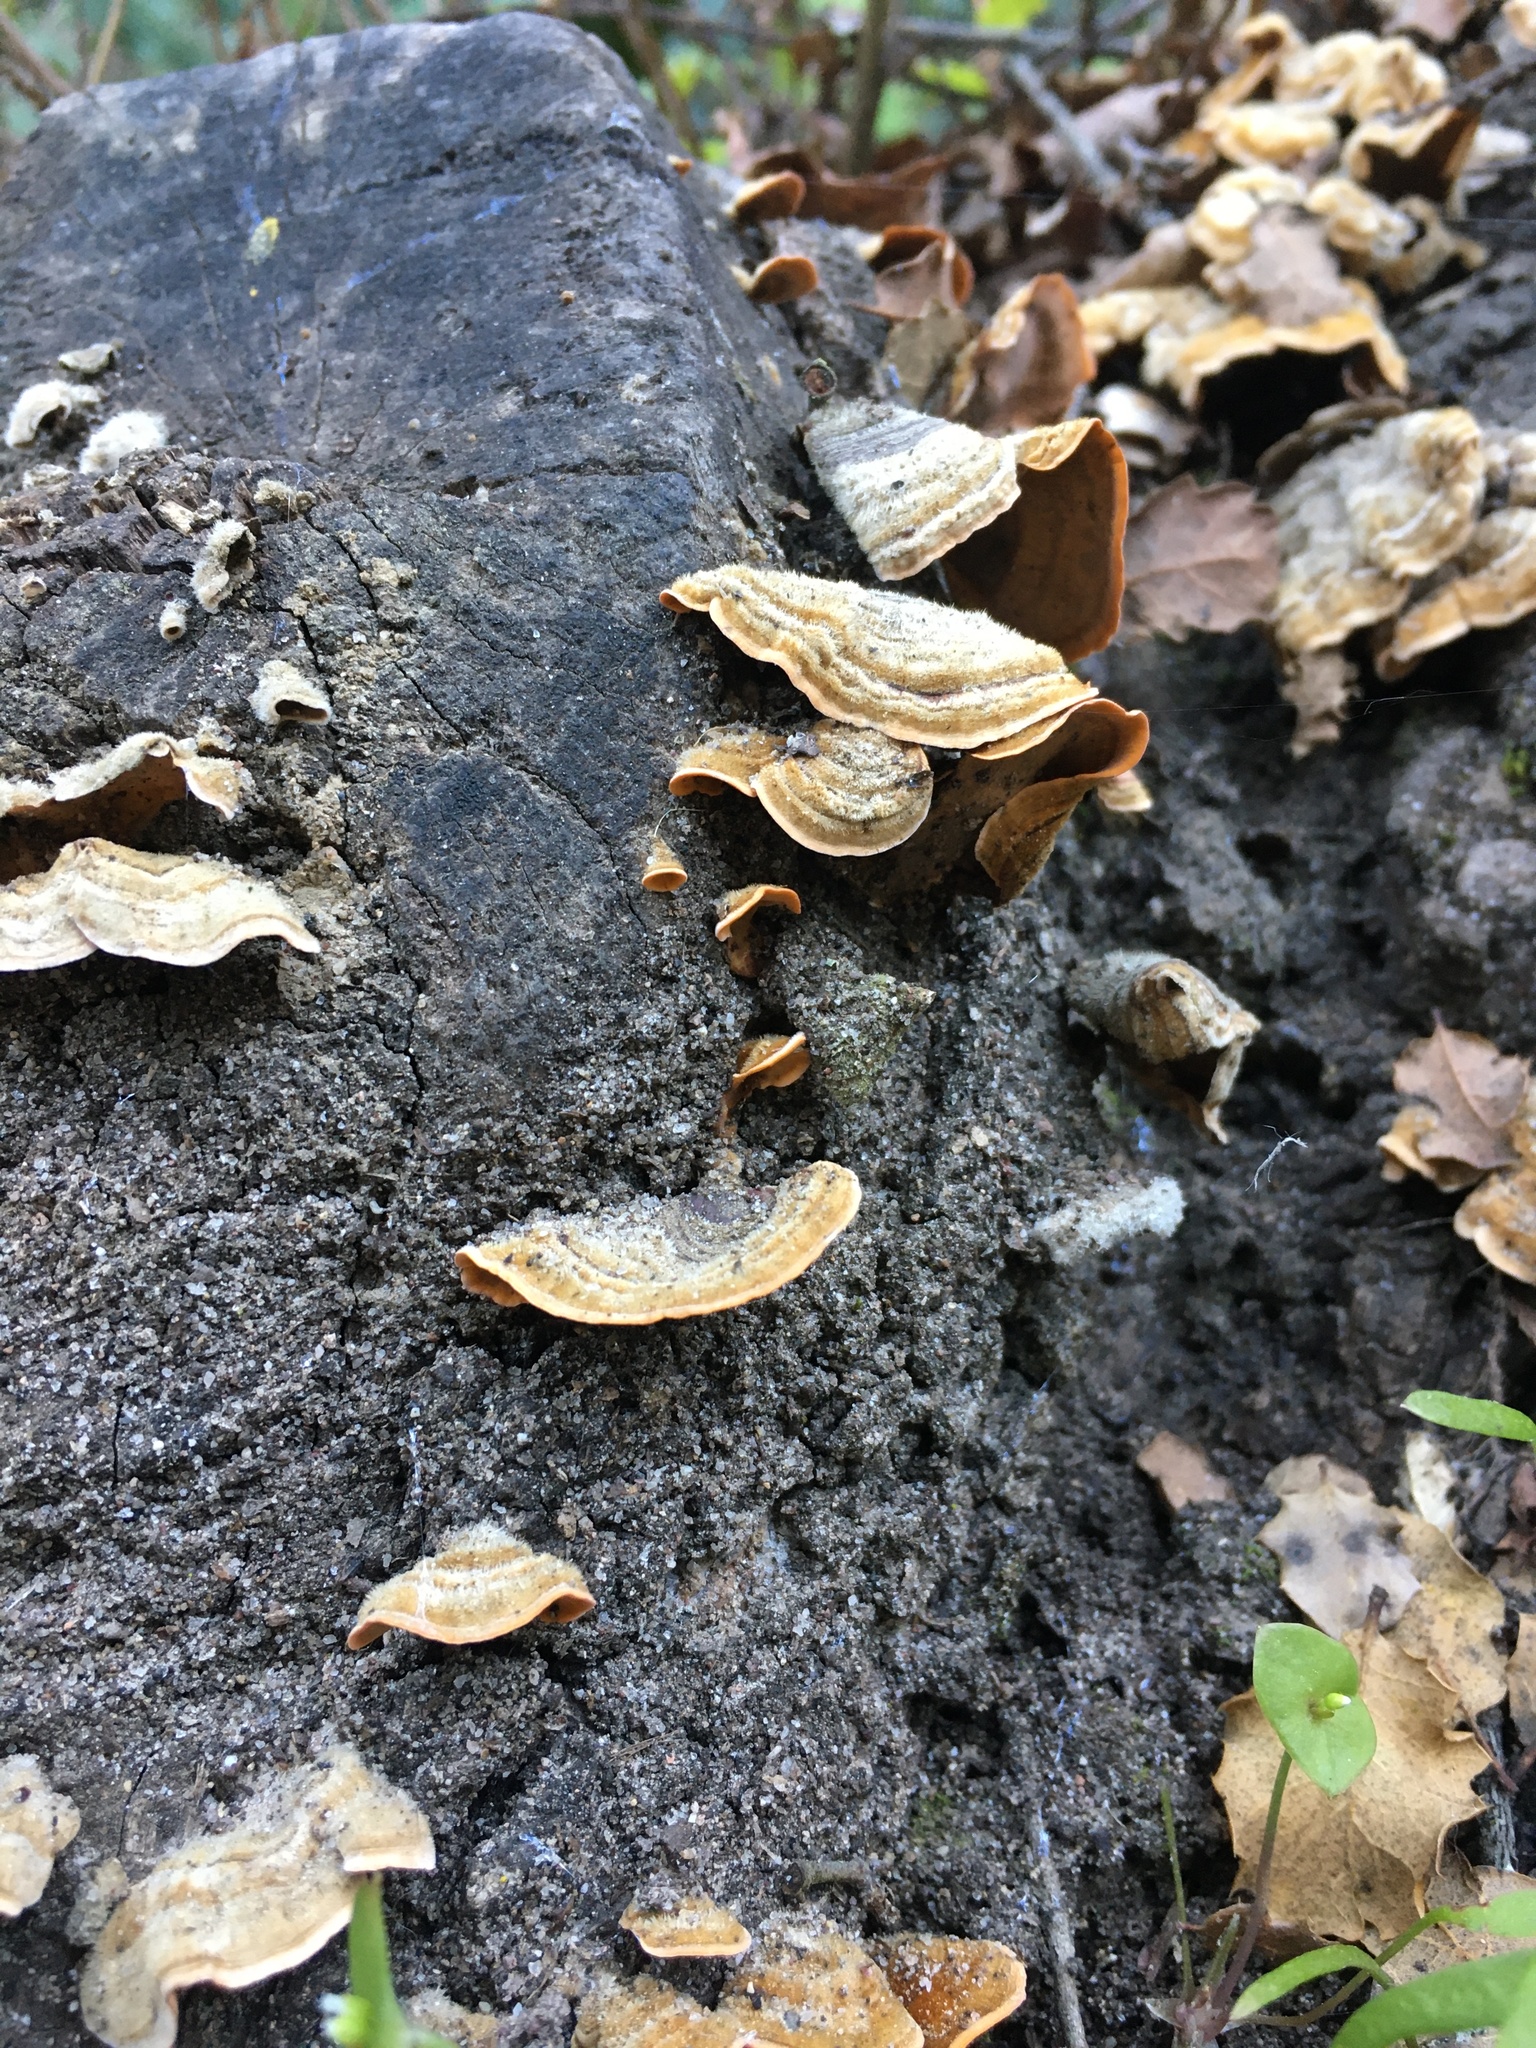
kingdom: Fungi
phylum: Basidiomycota
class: Agaricomycetes
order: Russulales
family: Stereaceae
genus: Stereum
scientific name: Stereum hirsutum
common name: Hairy curtain crust
